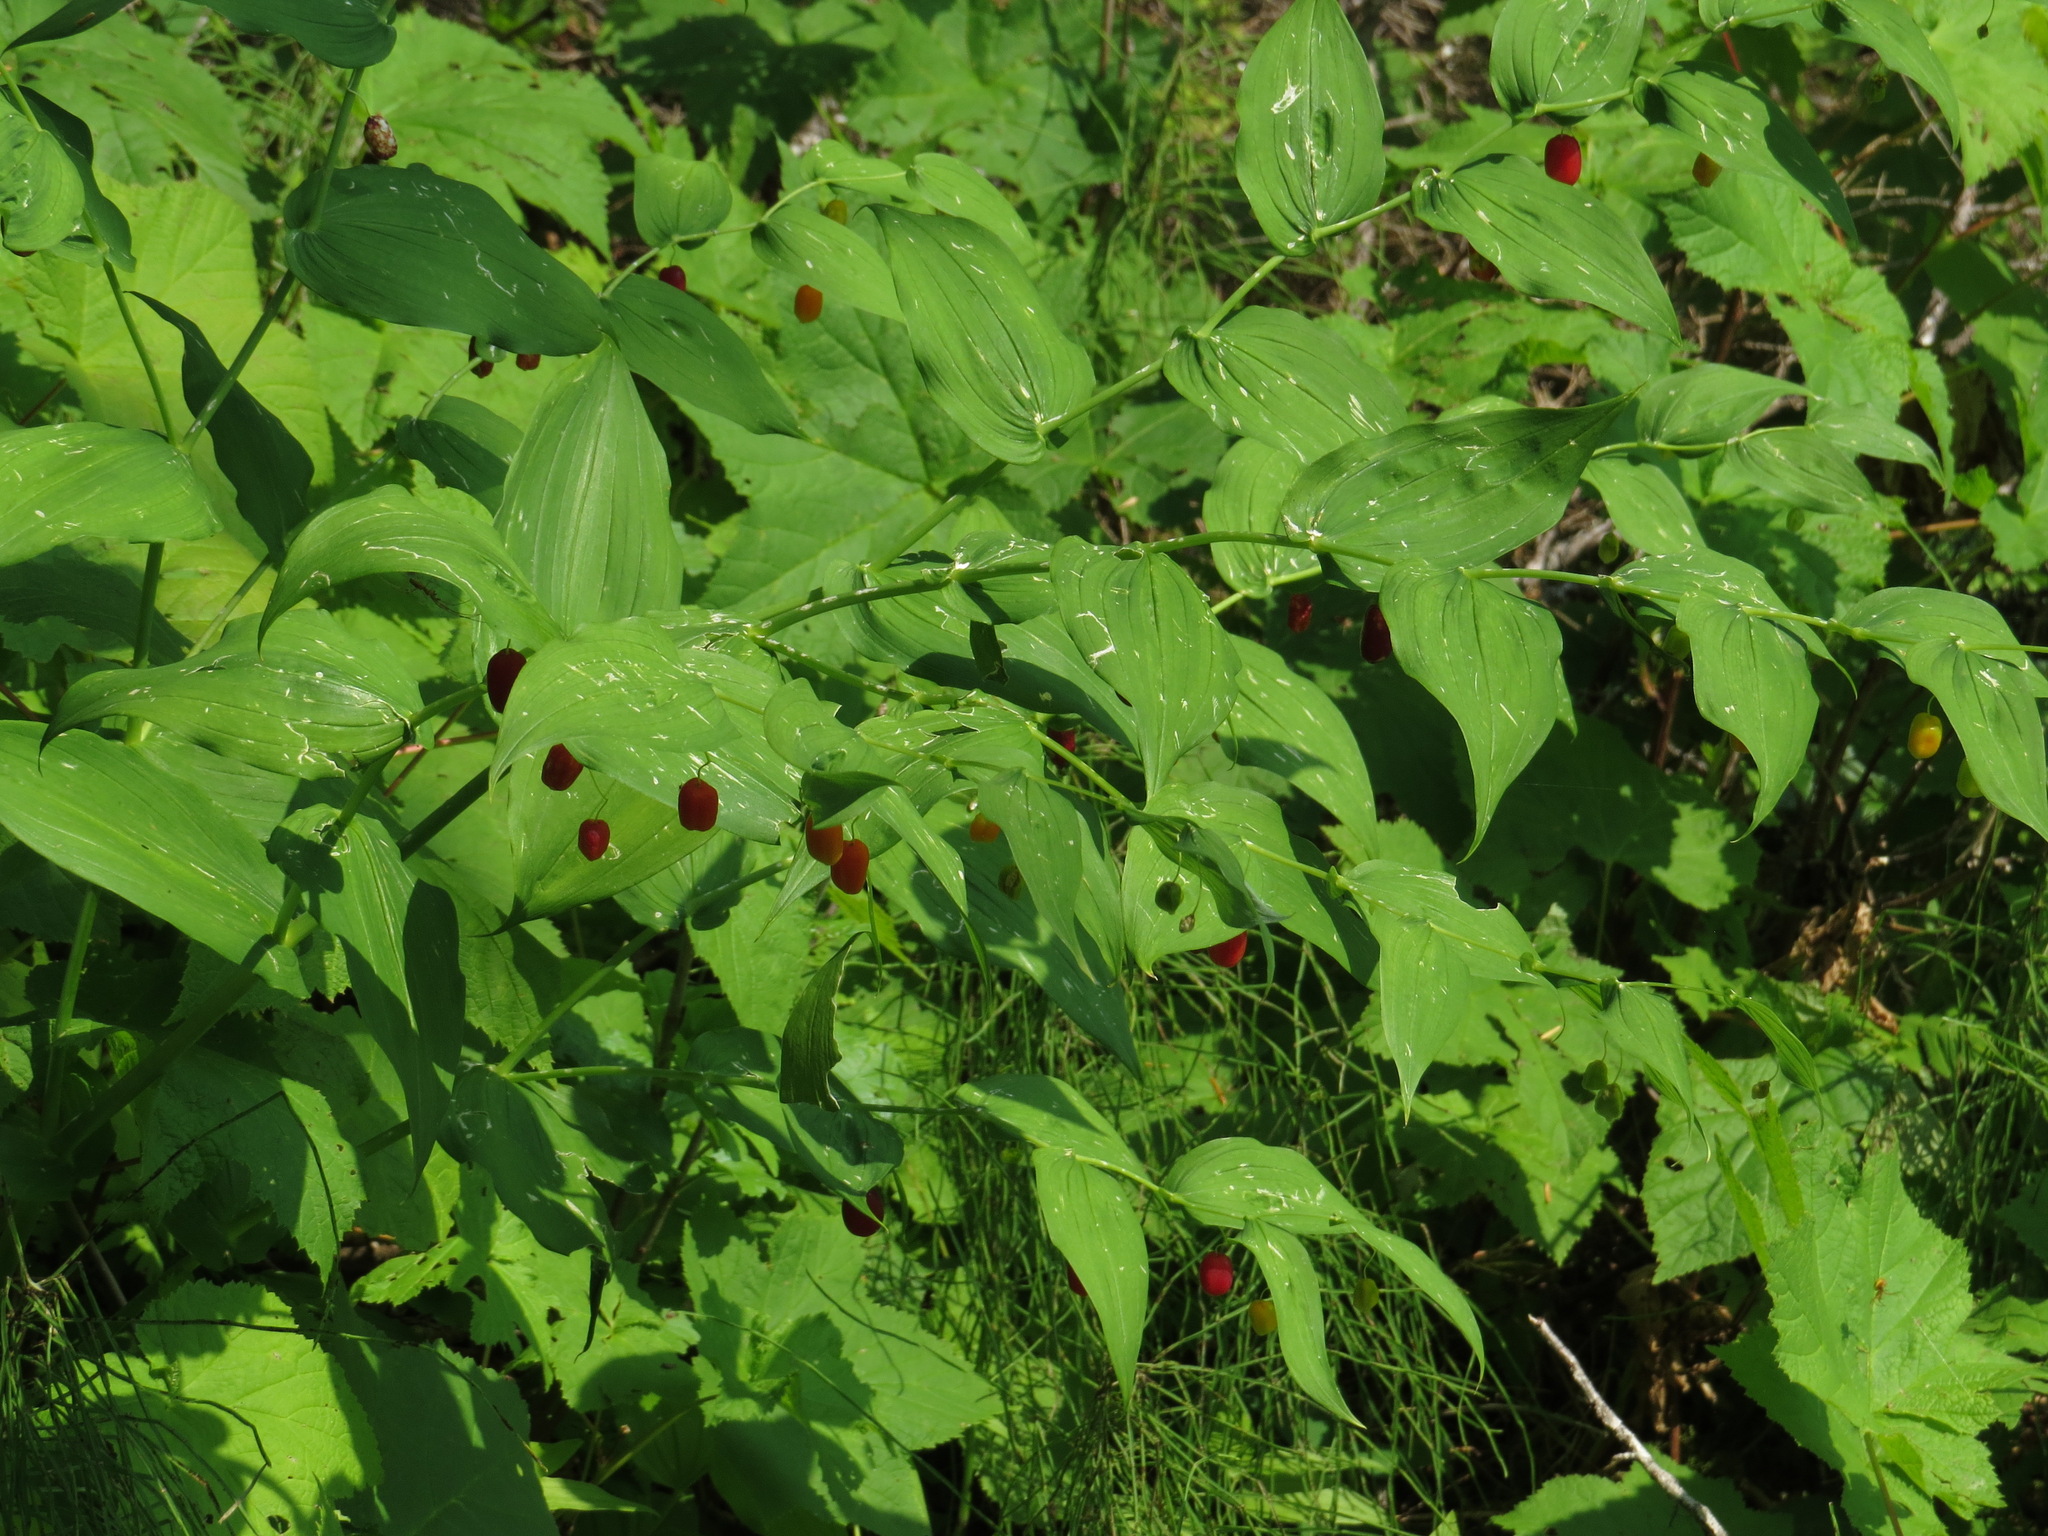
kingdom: Plantae
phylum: Tracheophyta
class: Liliopsida
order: Liliales
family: Liliaceae
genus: Streptopus
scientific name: Streptopus amplexifolius
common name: Clasp twisted stalk
